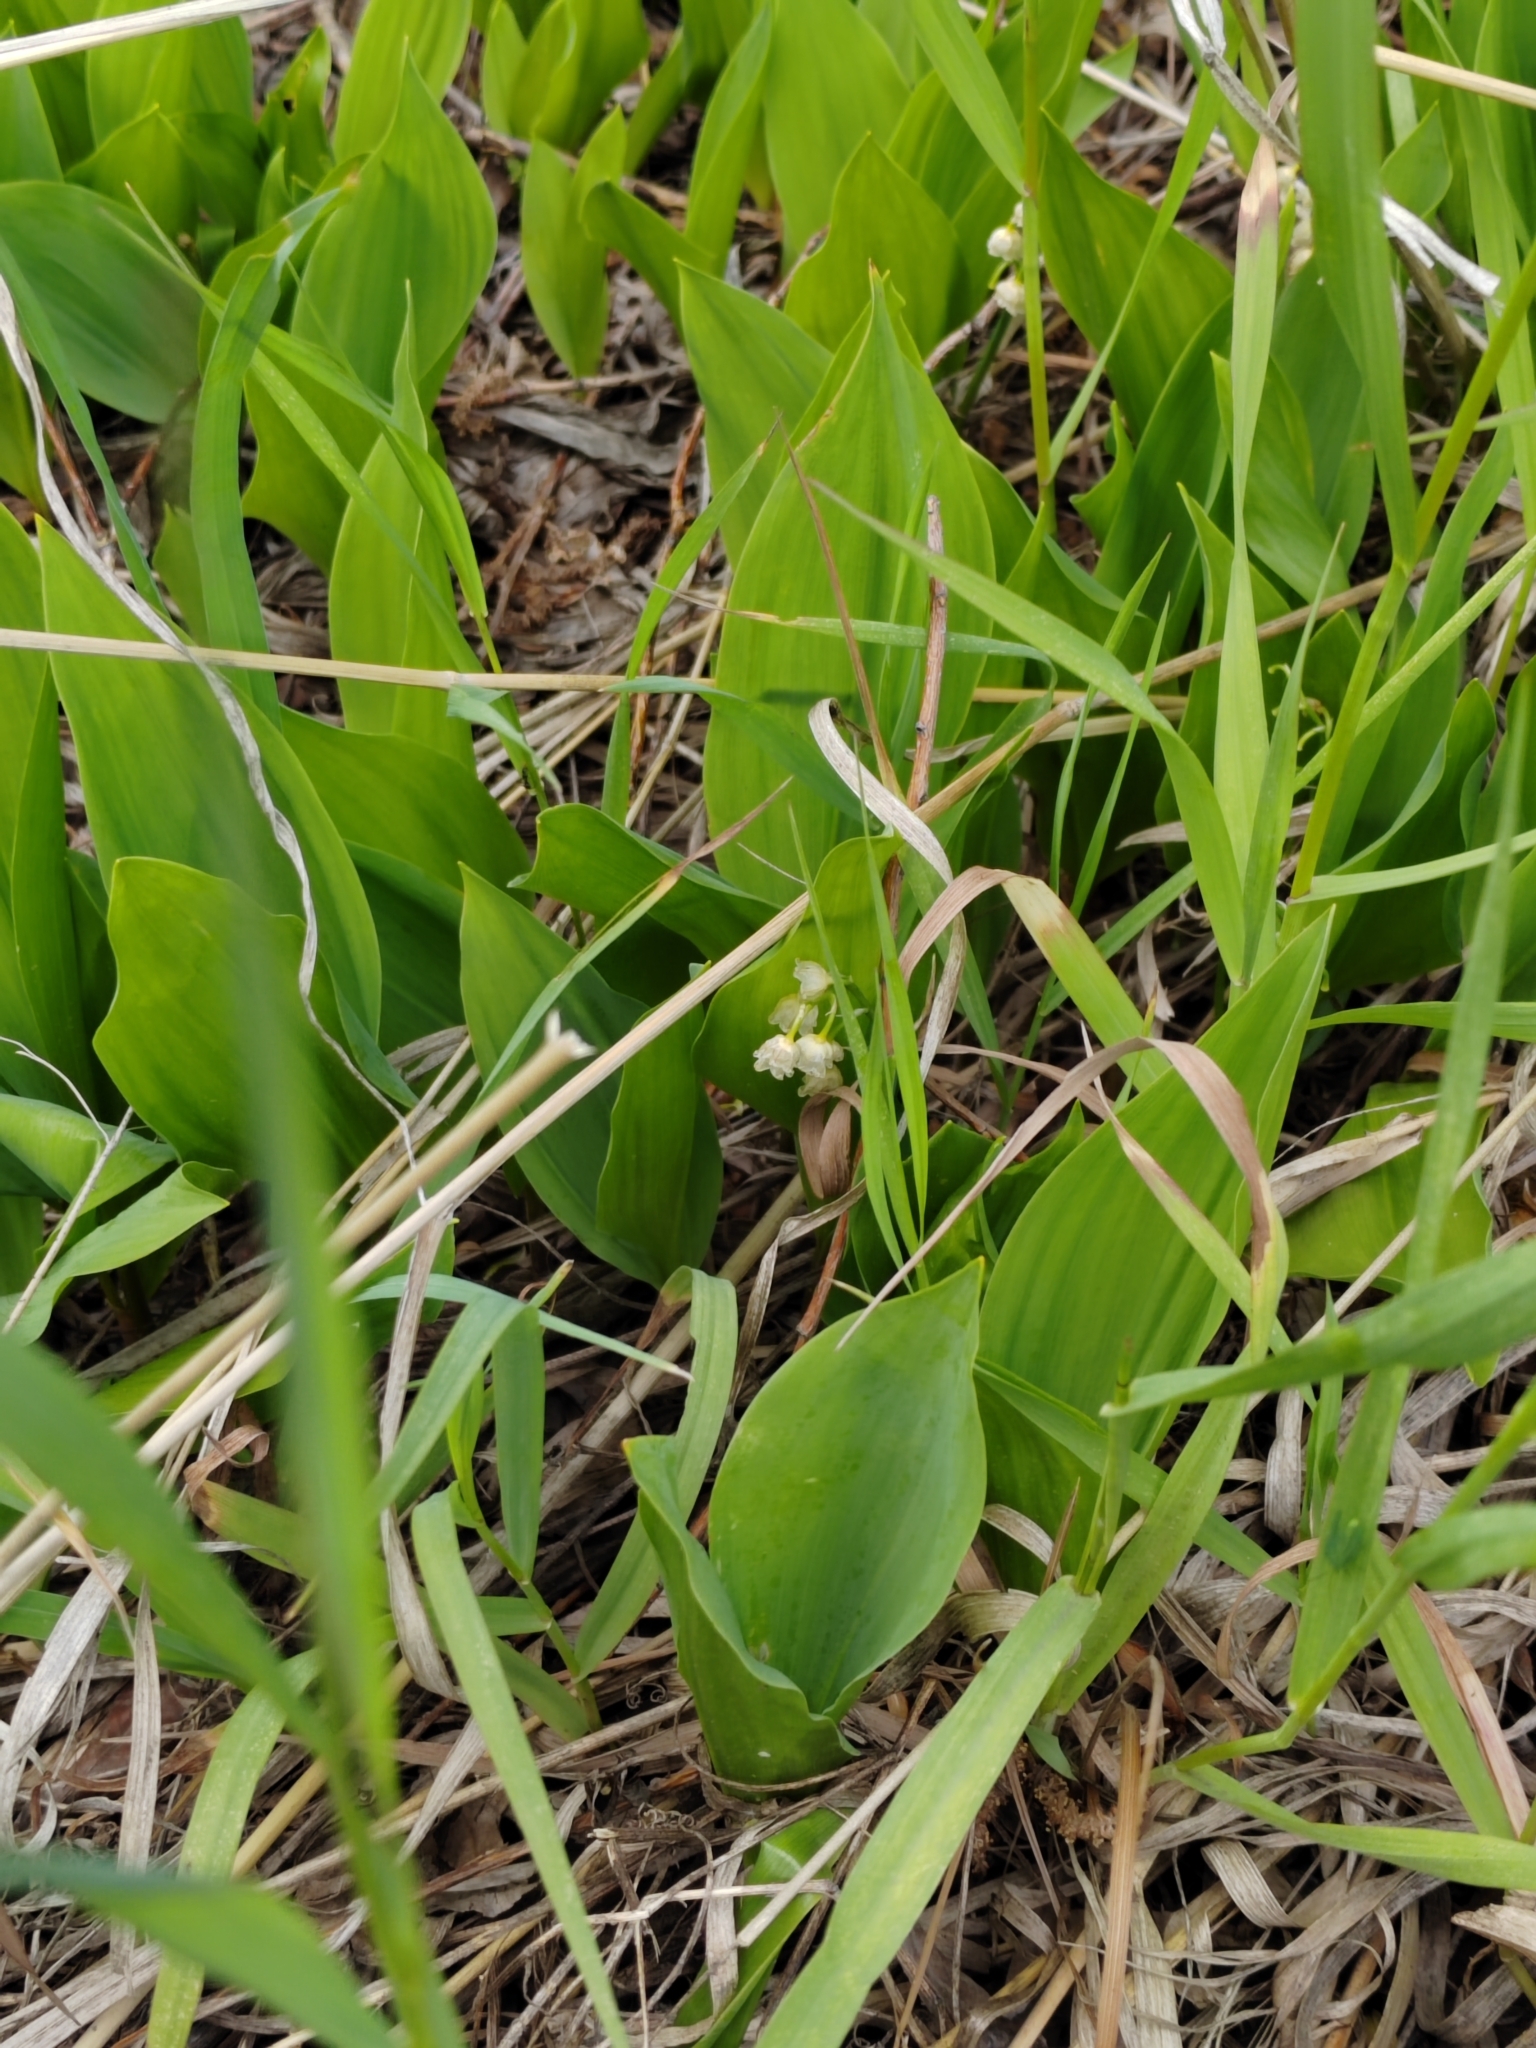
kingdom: Plantae
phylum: Tracheophyta
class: Liliopsida
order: Asparagales
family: Asparagaceae
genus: Convallaria
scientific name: Convallaria majalis
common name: Lily-of-the-valley
